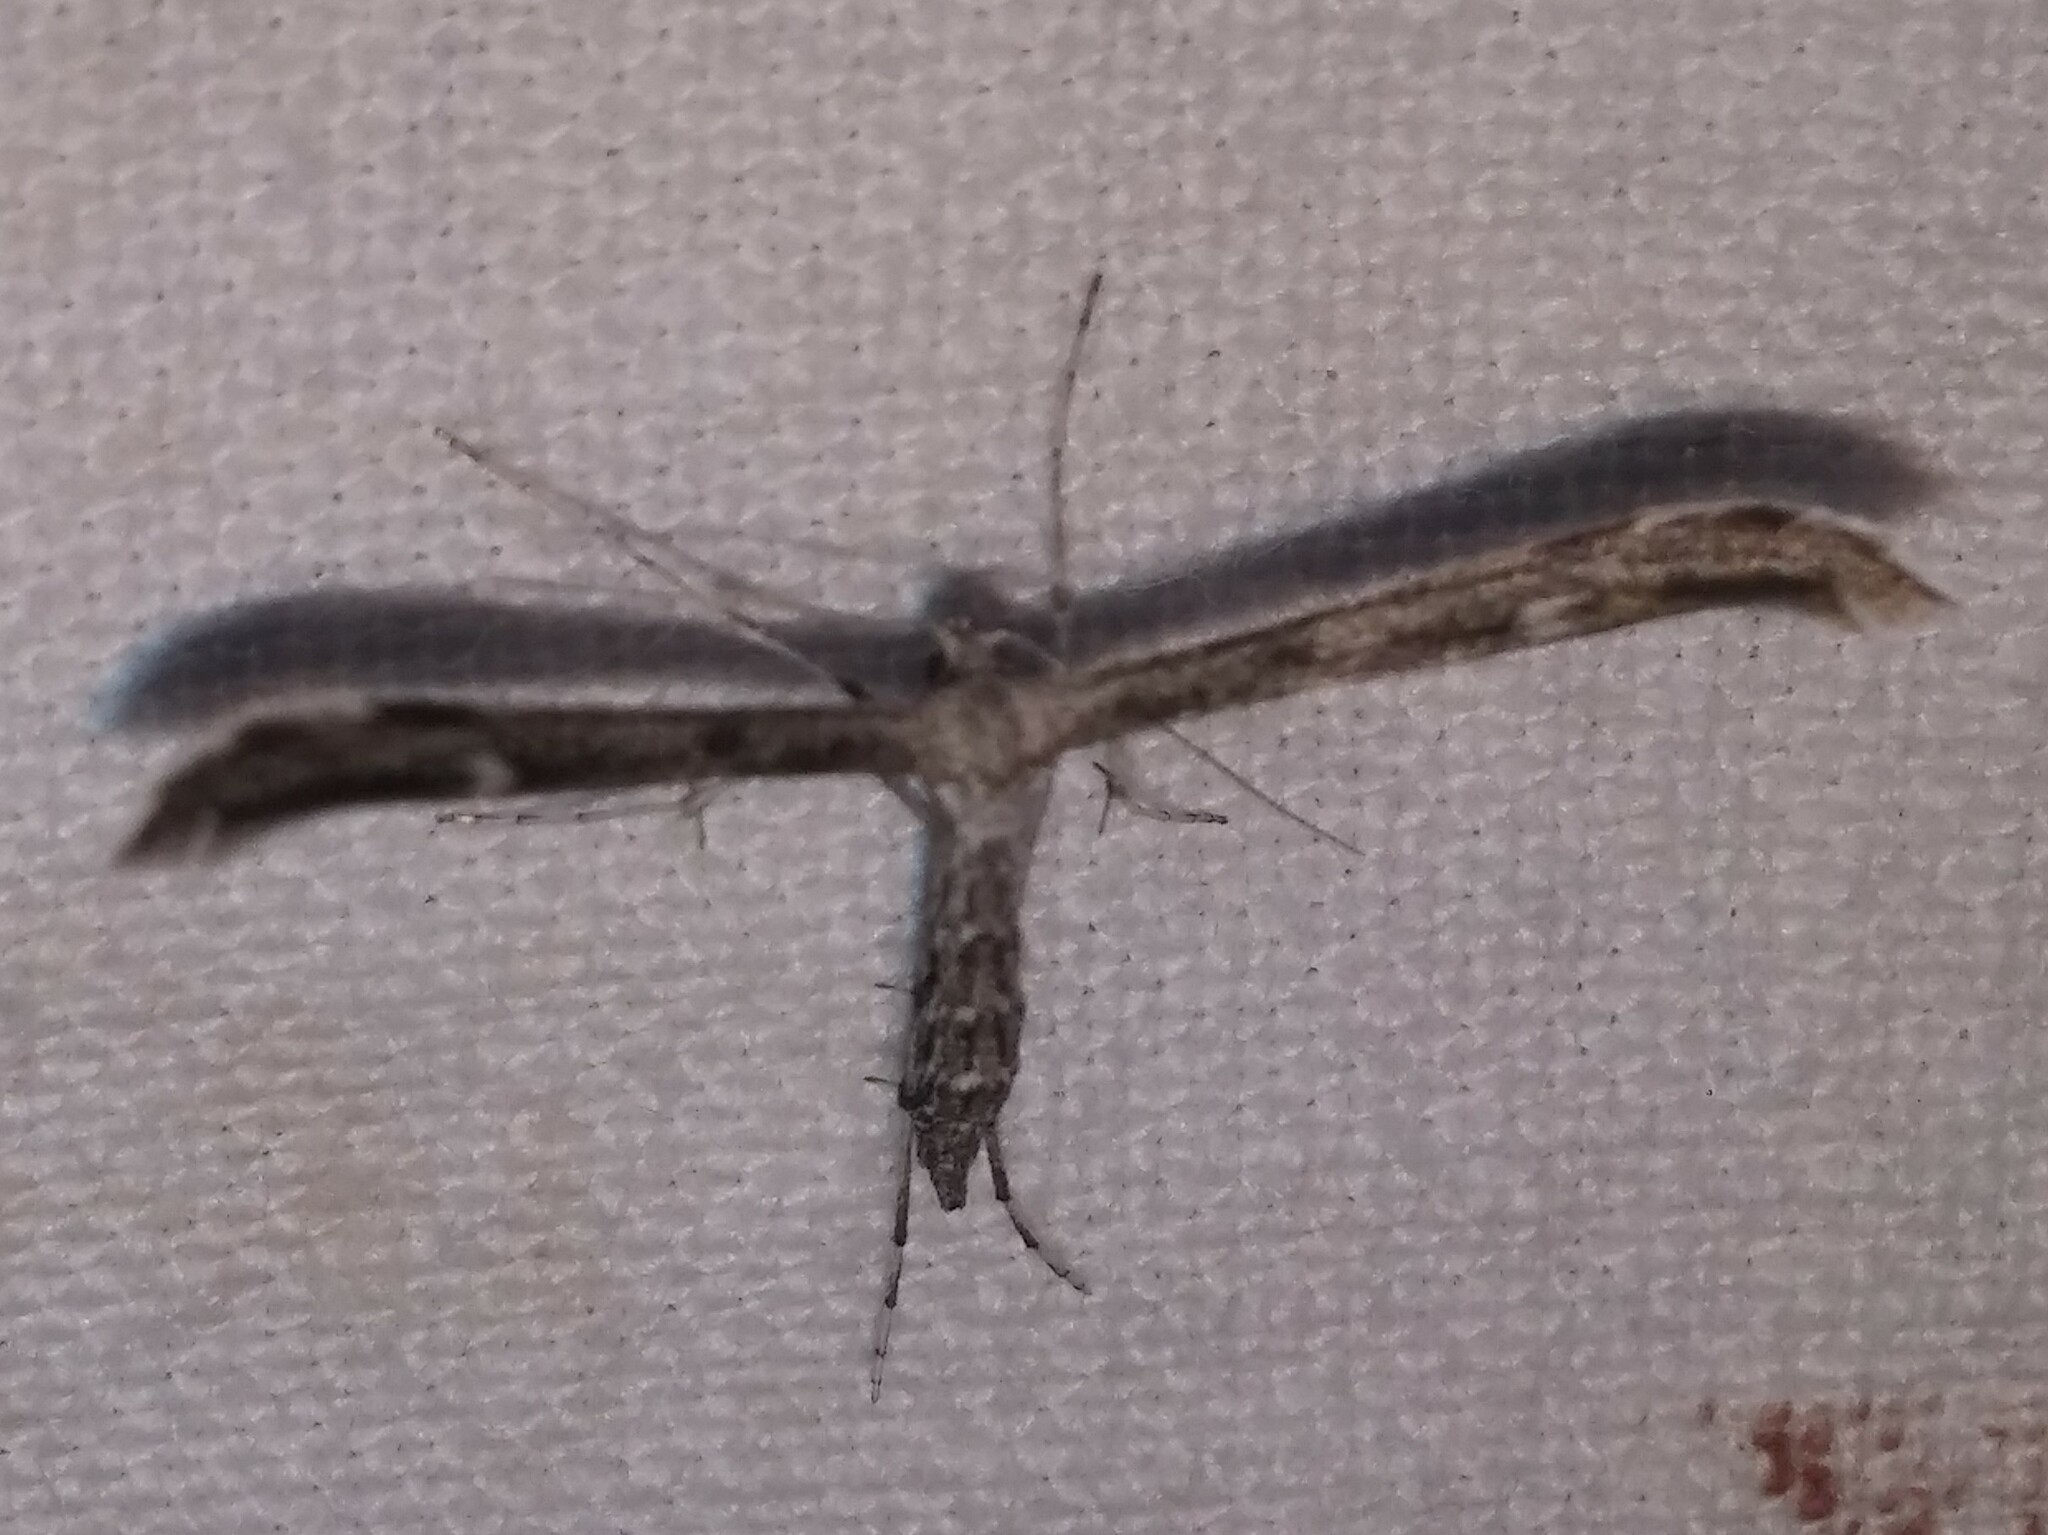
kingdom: Animalia
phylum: Arthropoda
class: Insecta
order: Lepidoptera
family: Pterophoridae
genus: Hellinsia
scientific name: Hellinsia inquinatus
